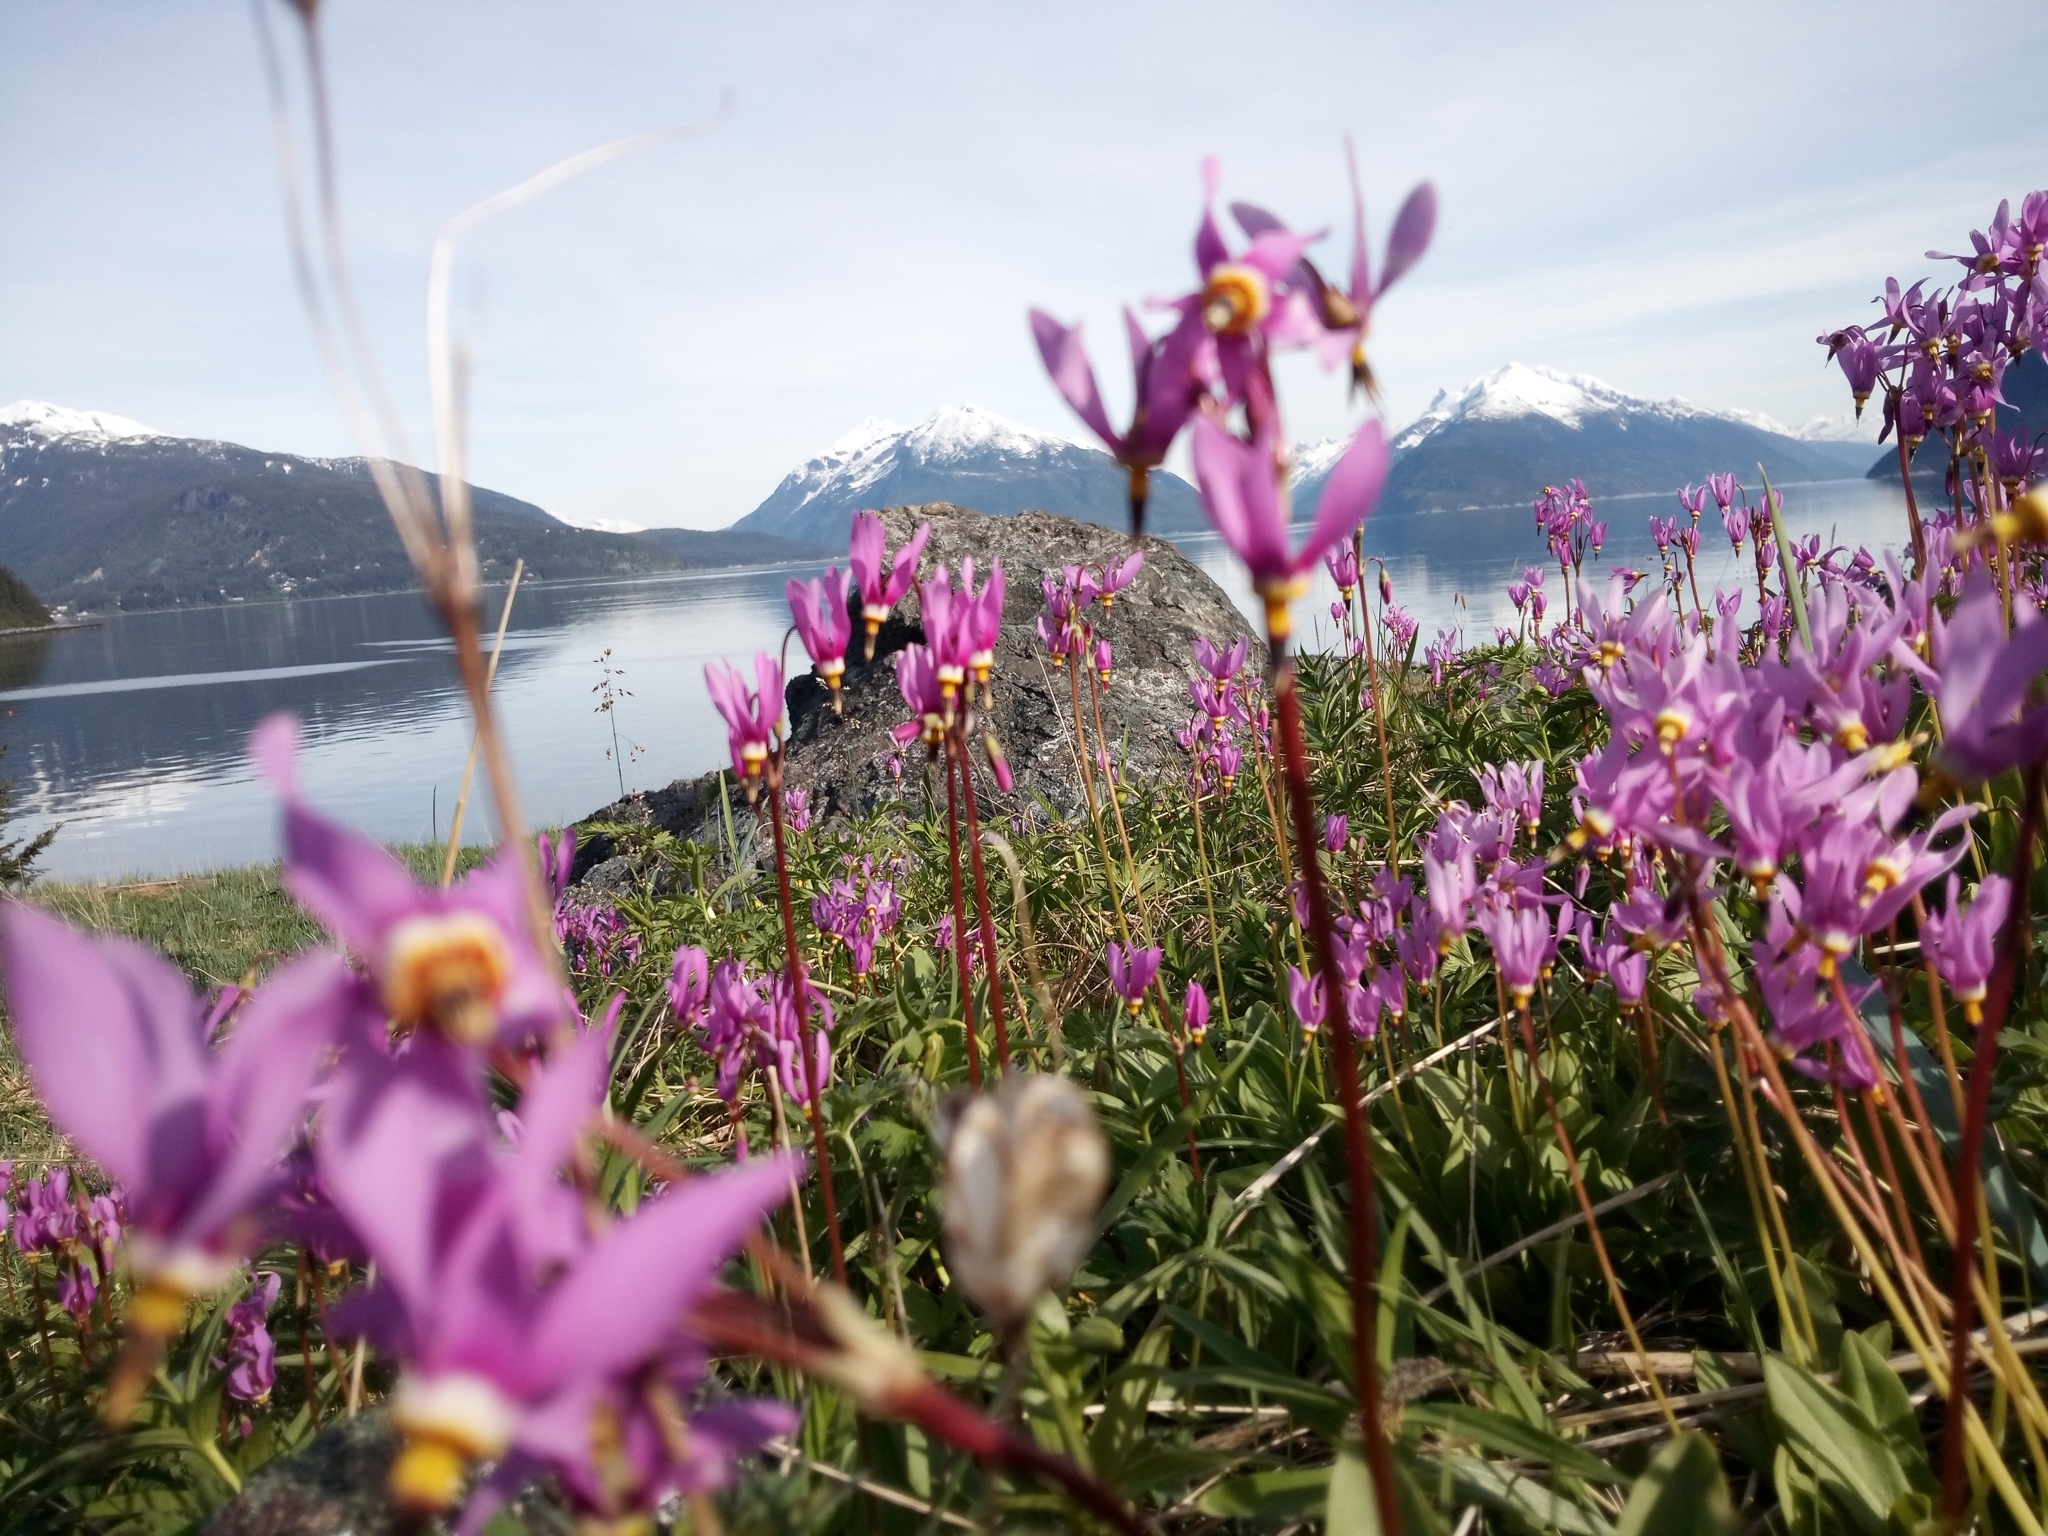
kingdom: Plantae
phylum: Tracheophyta
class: Magnoliopsida
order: Ericales
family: Primulaceae
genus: Dodecatheon
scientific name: Dodecatheon pulchellum
